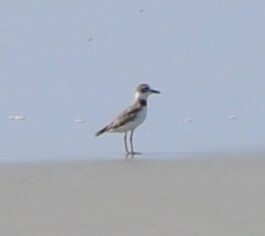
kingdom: Animalia
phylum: Chordata
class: Aves
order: Charadriiformes
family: Charadriidae
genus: Anarhynchus
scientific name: Anarhynchus
